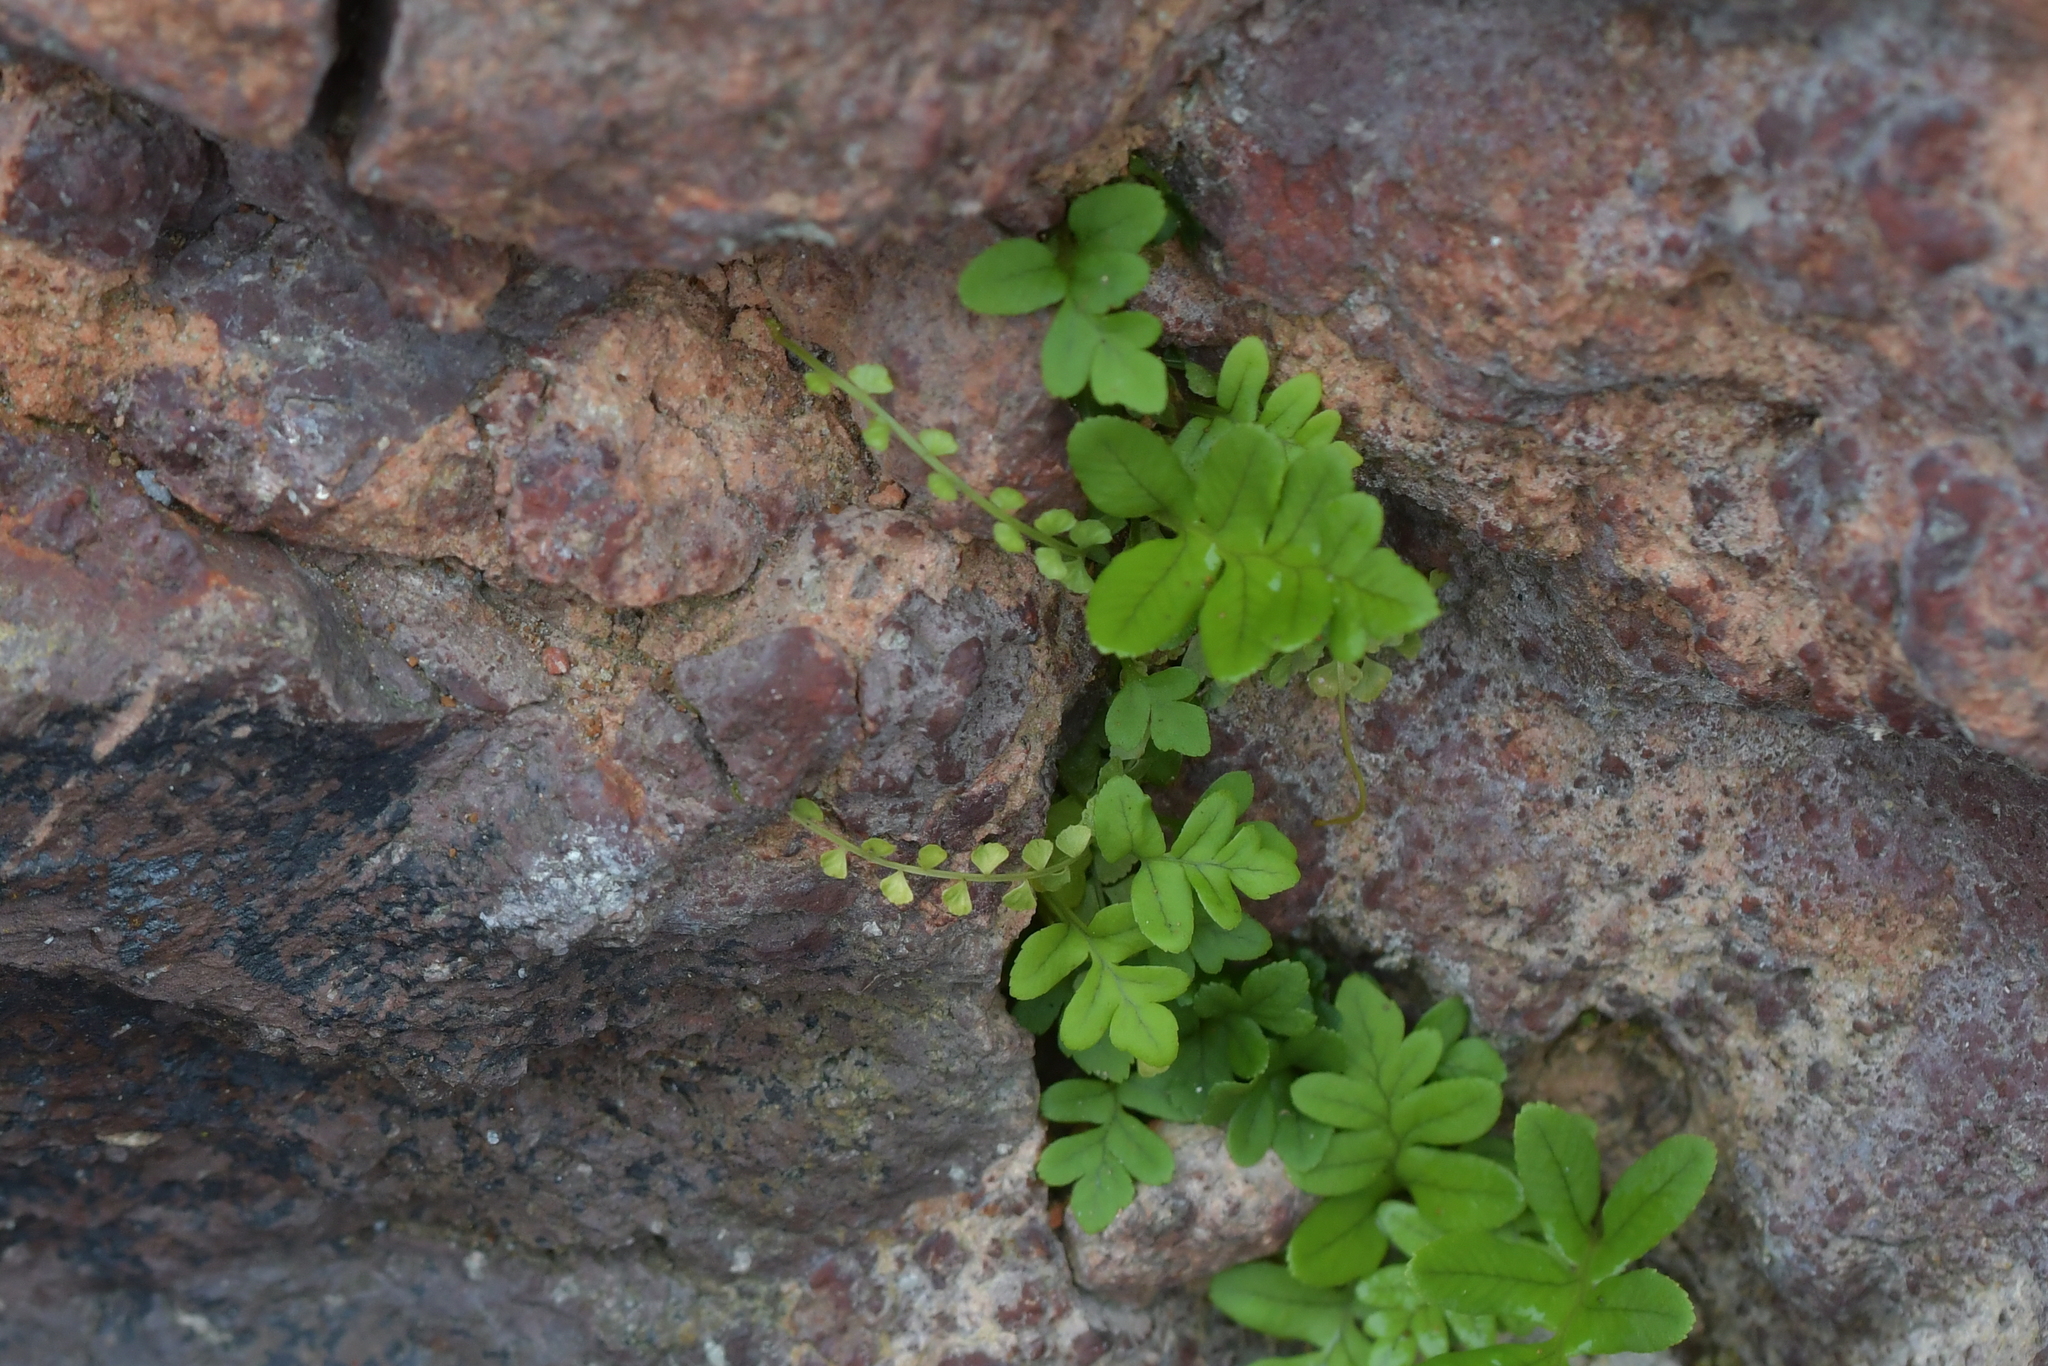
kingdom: Plantae
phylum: Tracheophyta
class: Polypodiopsida
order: Polypodiales
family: Aspleniaceae
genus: Asplenium
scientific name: Asplenium flabellifolium
